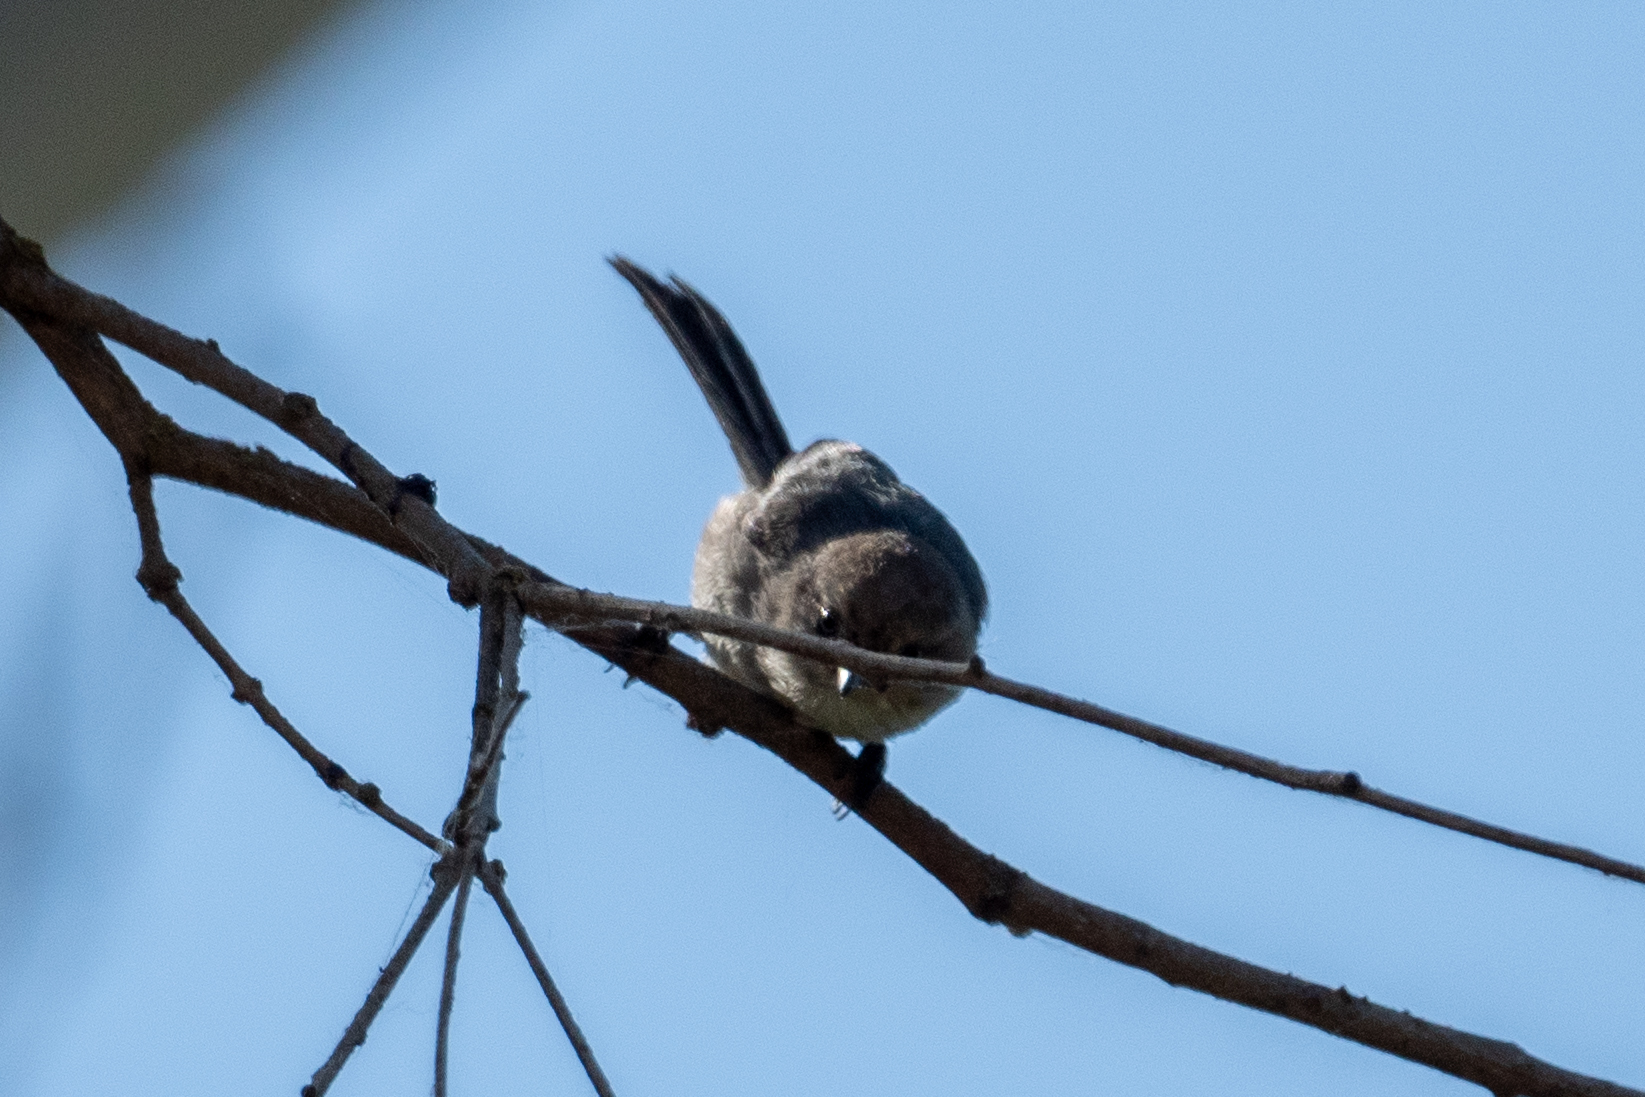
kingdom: Animalia
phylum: Chordata
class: Aves
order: Passeriformes
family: Aegithalidae
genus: Psaltriparus
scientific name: Psaltriparus minimus
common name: American bushtit
